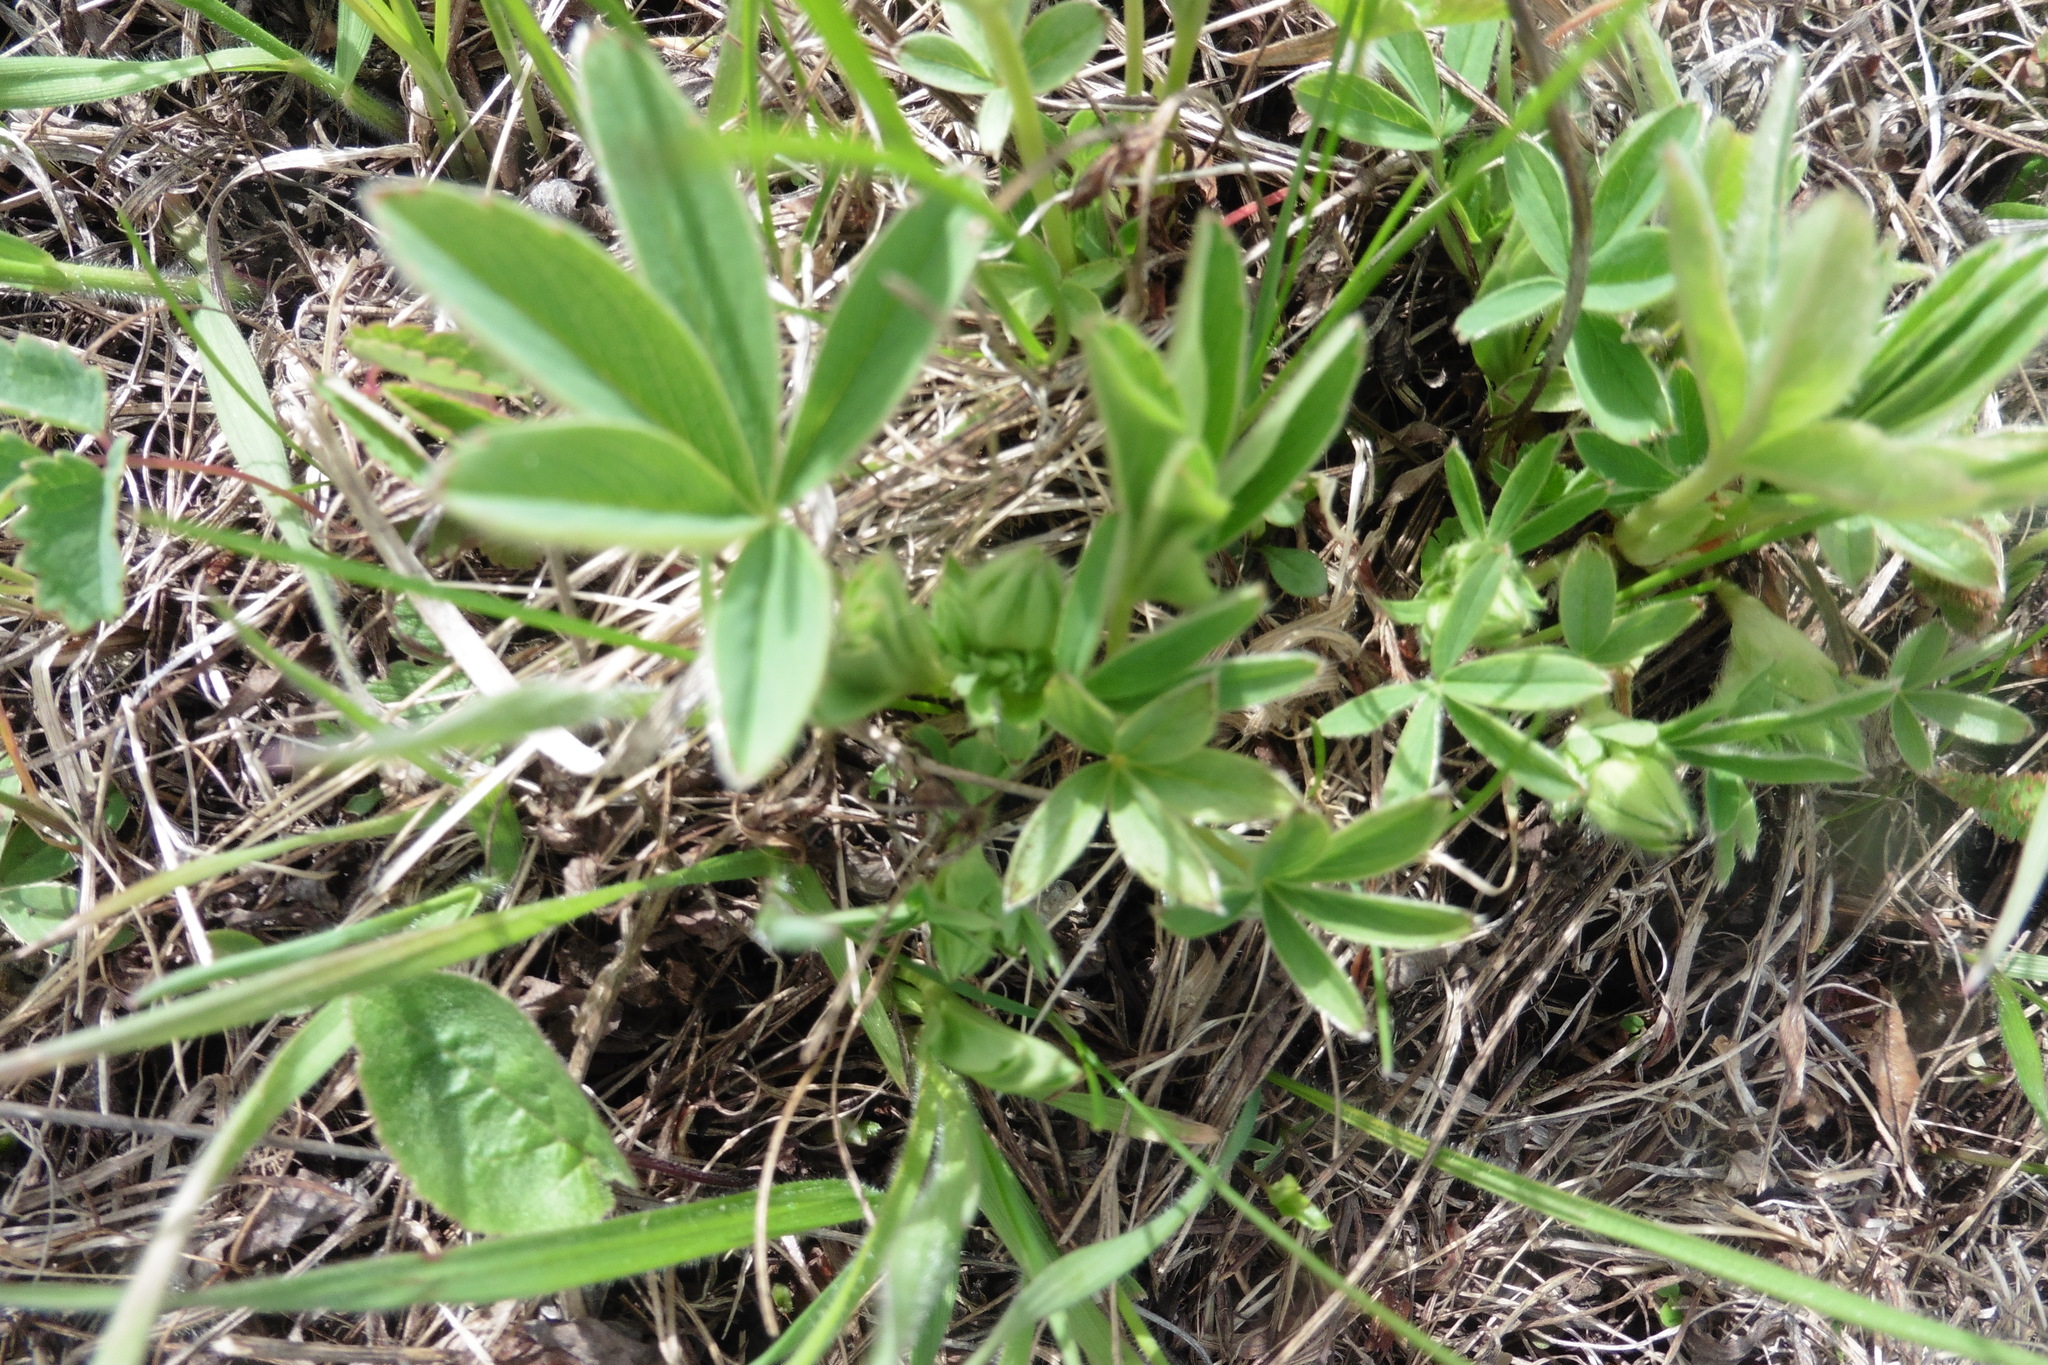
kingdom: Plantae
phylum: Tracheophyta
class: Magnoliopsida
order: Rosales
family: Rosaceae
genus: Potentilla
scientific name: Potentilla alba
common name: White cinquefoil
